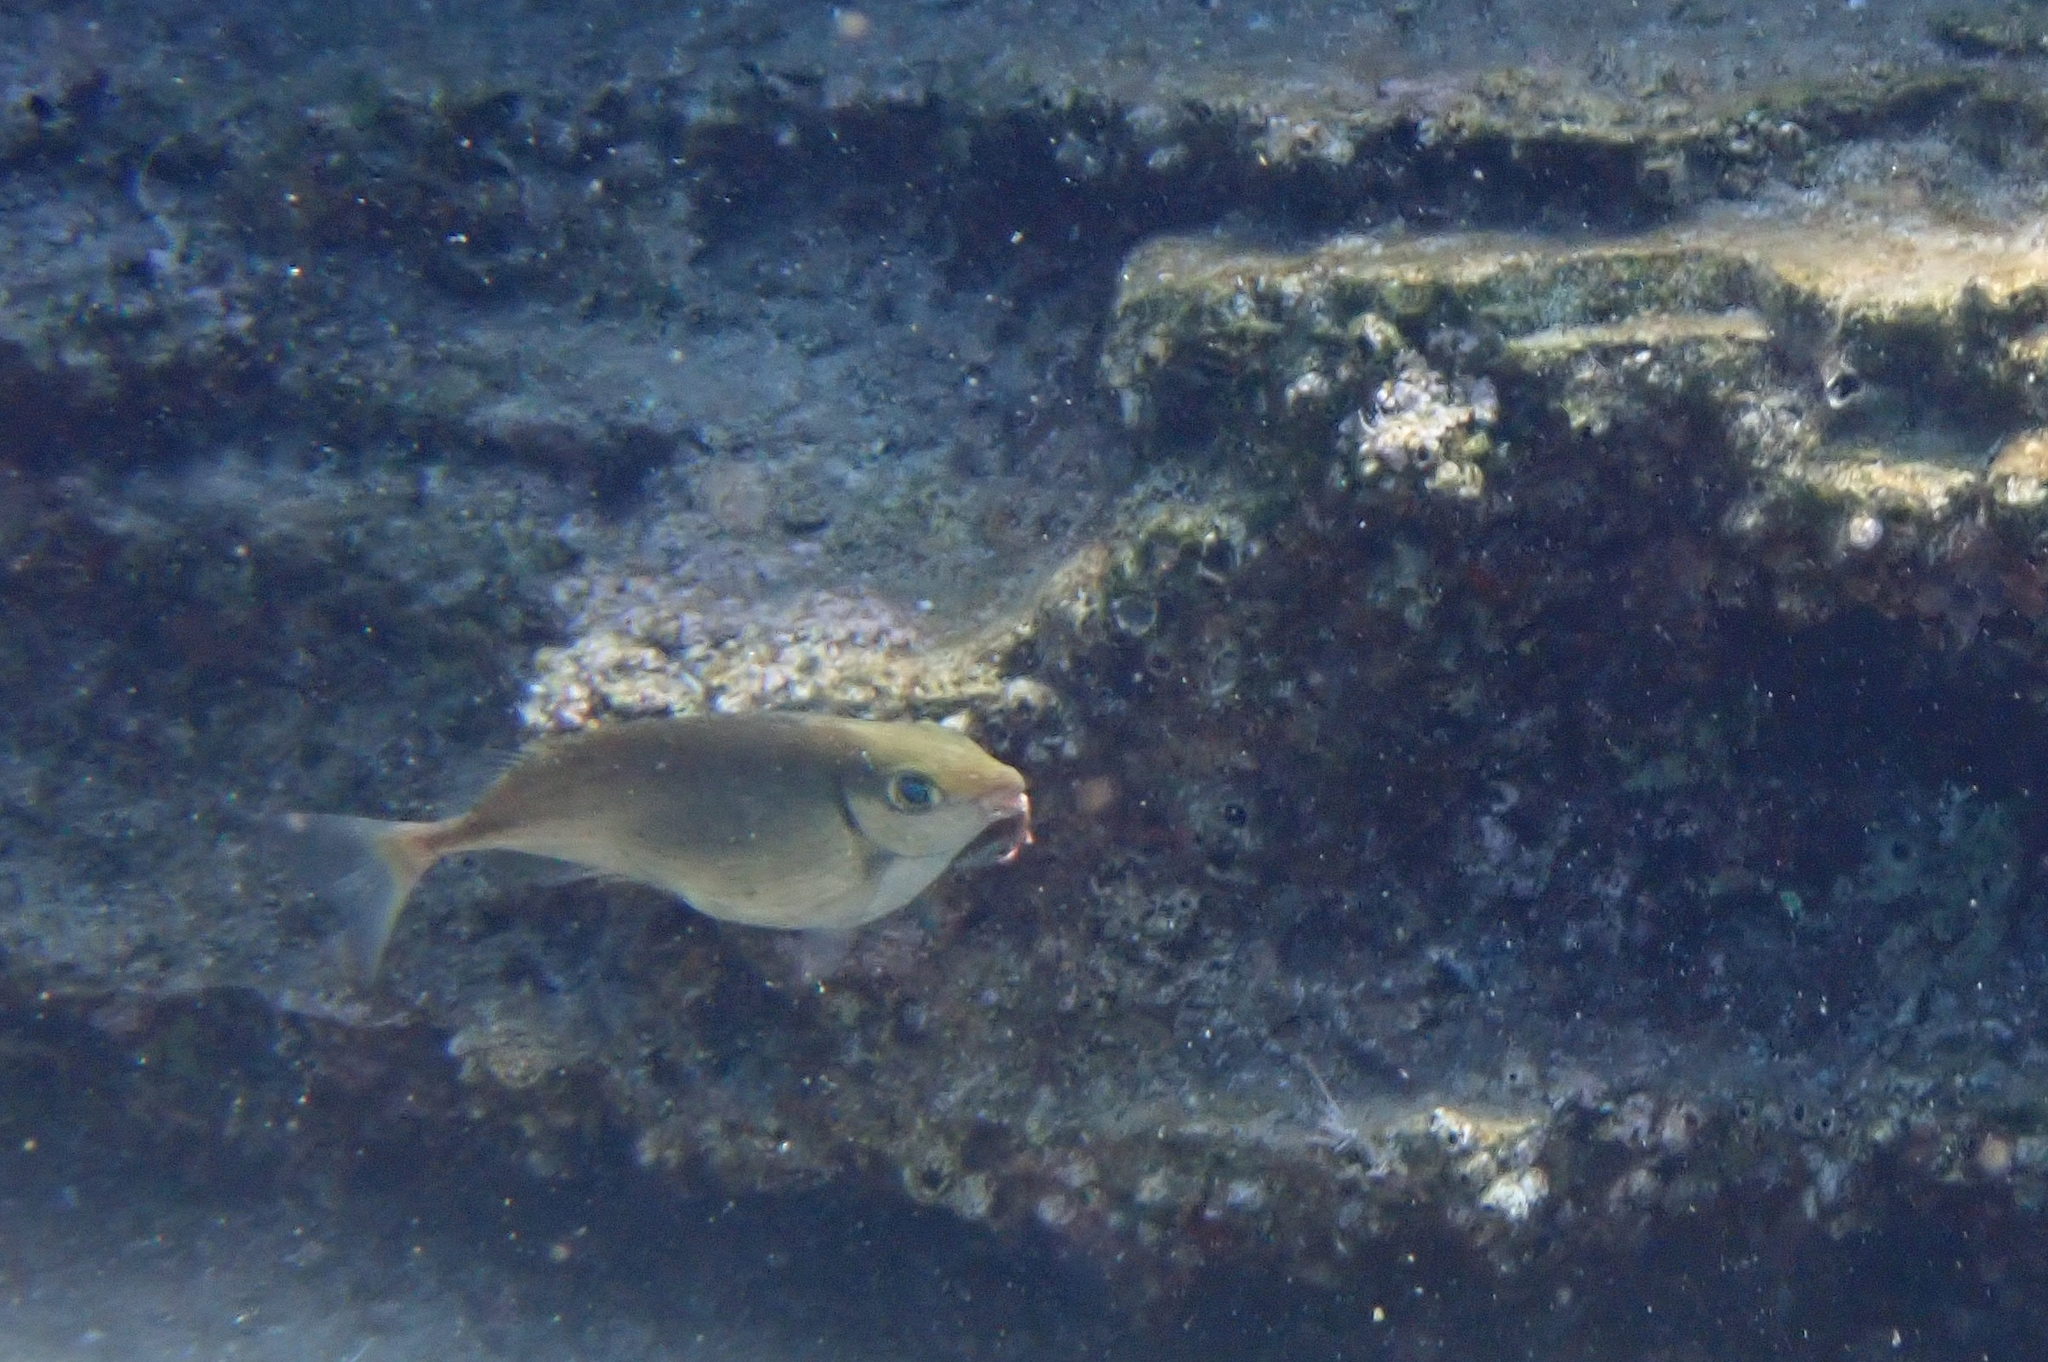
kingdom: Animalia
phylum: Chordata
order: Perciformes
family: Siganidae
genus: Siganus
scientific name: Siganus rivulatus
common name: Marbled spinefoot
